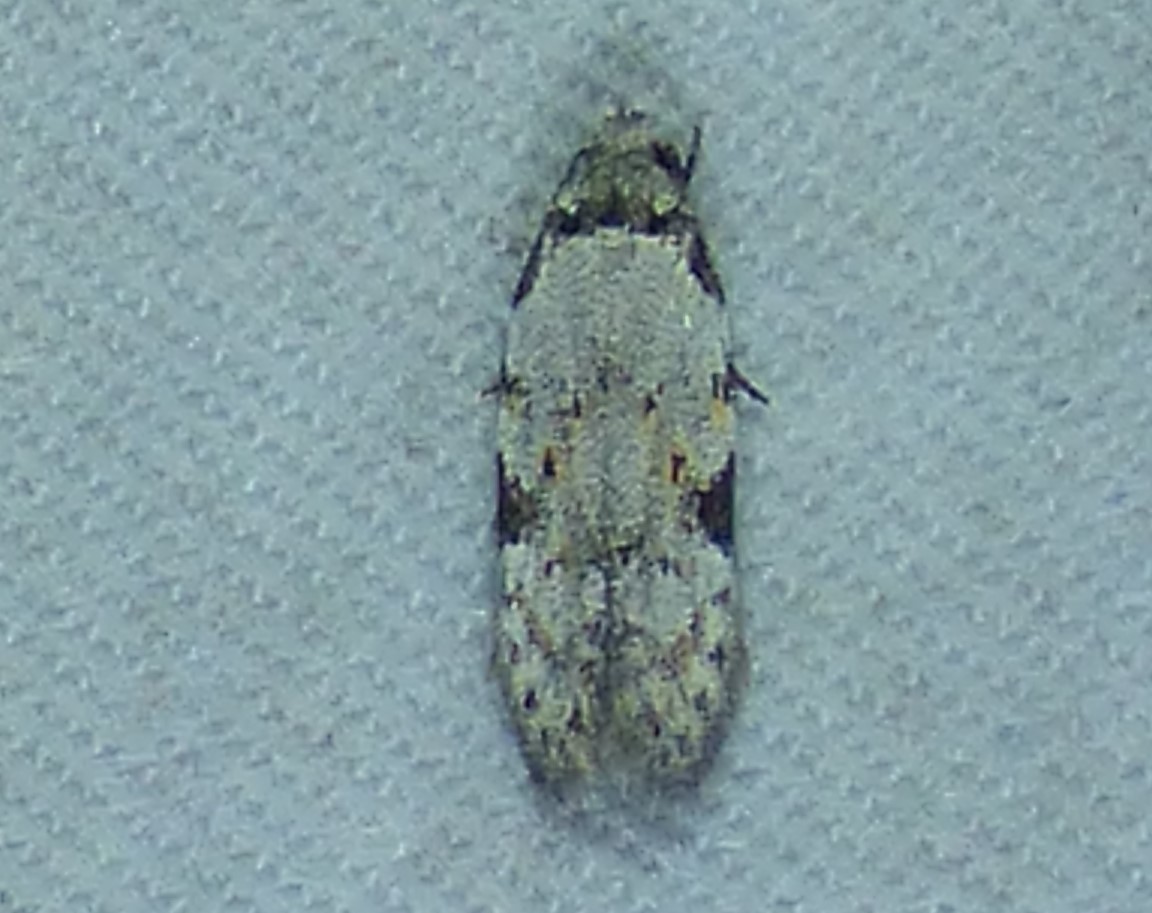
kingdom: Animalia
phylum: Arthropoda
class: Insecta
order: Lepidoptera
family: Autostichidae
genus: Taygete
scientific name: Taygete attributella
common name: Triangle-marked twirler moth
